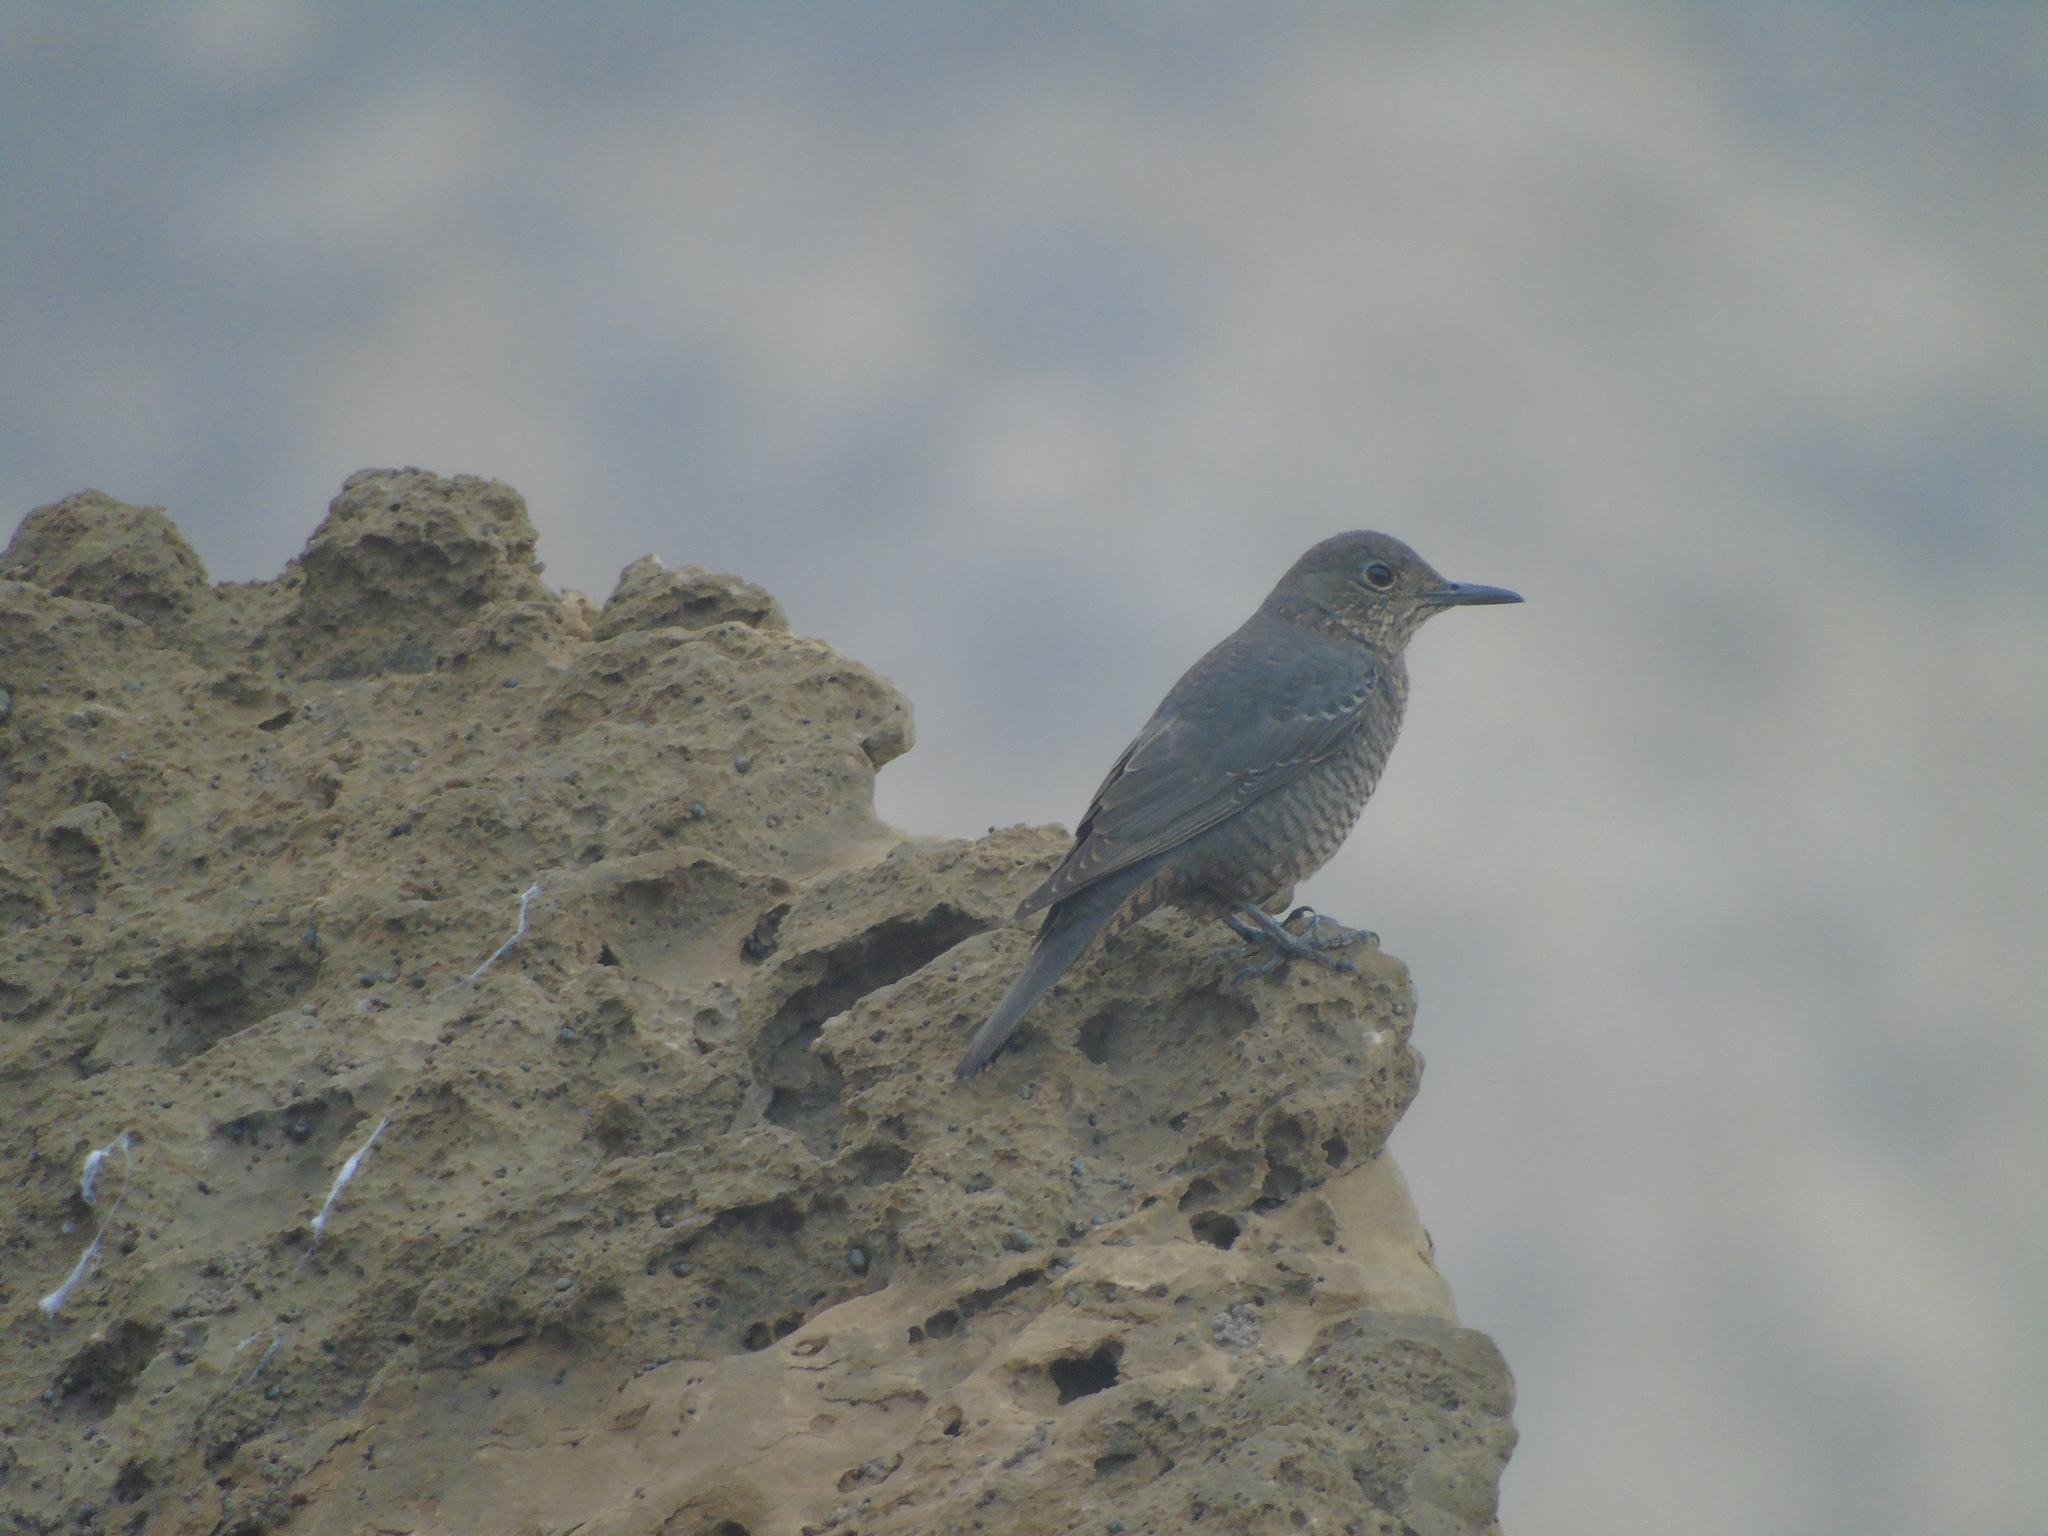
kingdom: Animalia
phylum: Chordata
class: Aves
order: Passeriformes
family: Muscicapidae
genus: Monticola
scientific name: Monticola solitarius
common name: Blue rock thrush
